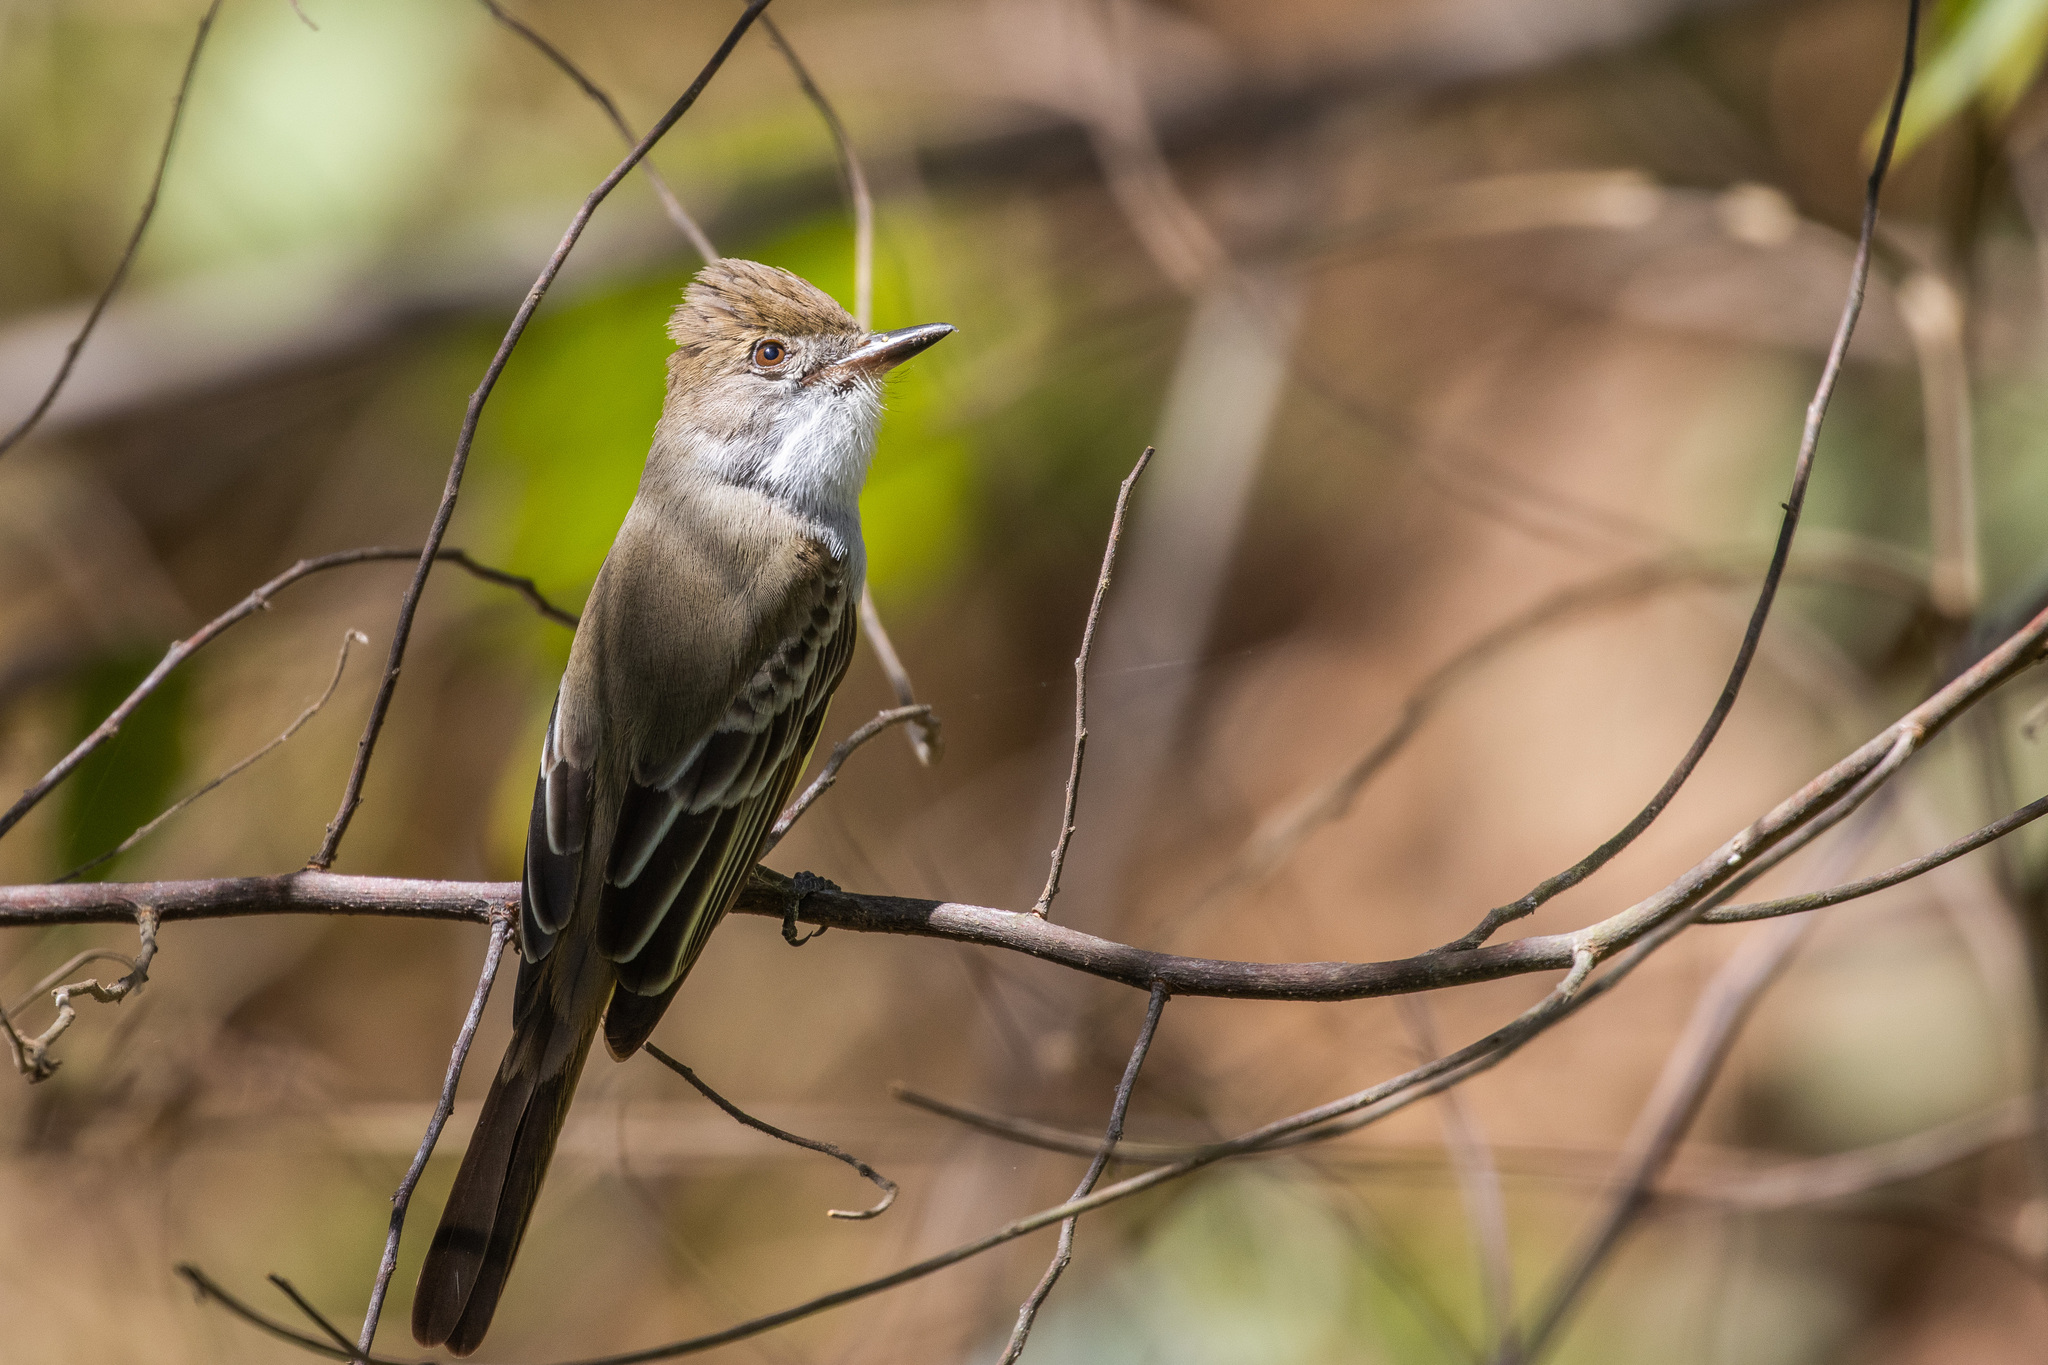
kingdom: Animalia
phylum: Chordata
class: Aves
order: Passeriformes
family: Tyrannidae
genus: Myiarchus
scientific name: Myiarchus tyrannulus
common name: Brown-crested flycatcher
